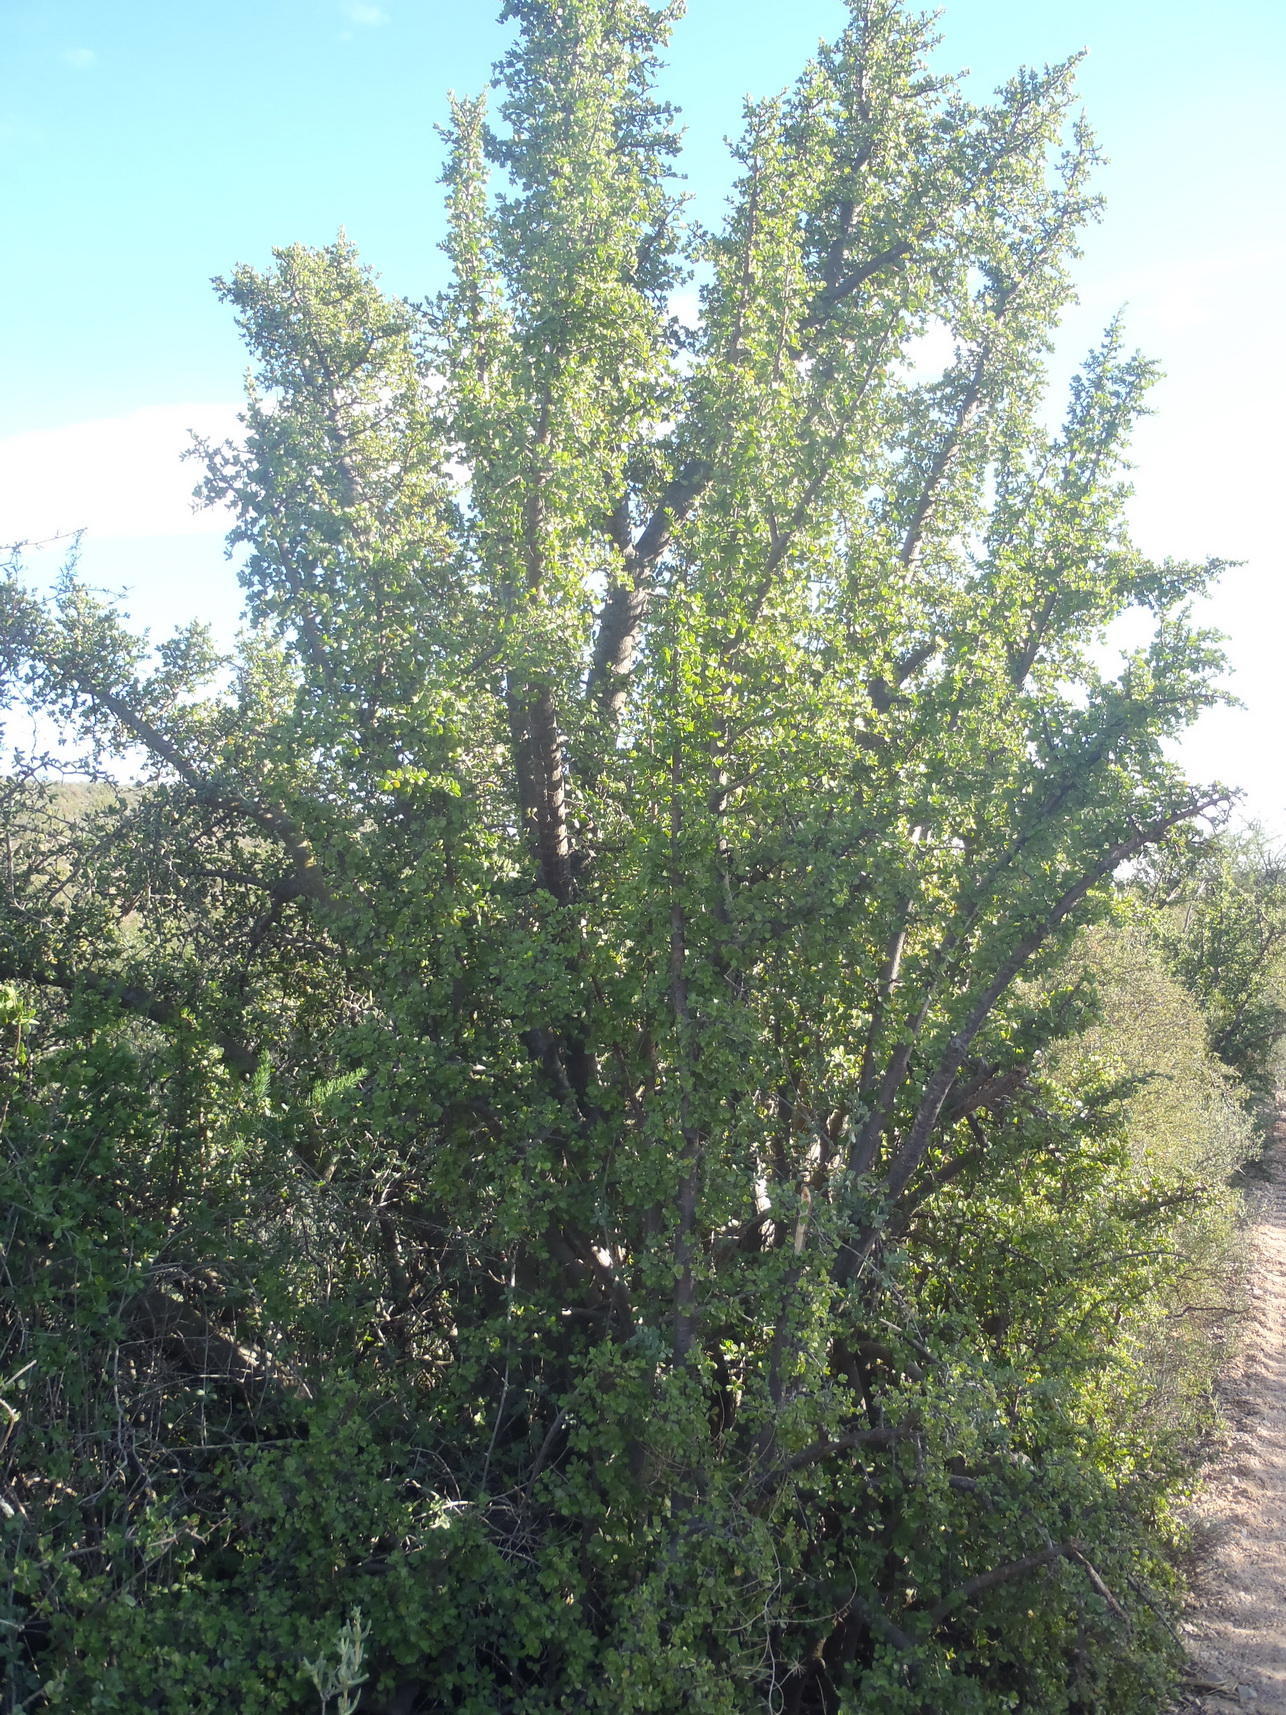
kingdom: Plantae
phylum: Tracheophyta
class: Magnoliopsida
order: Caryophyllales
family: Didiereaceae
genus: Portulacaria
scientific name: Portulacaria afra
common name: Elephant-bush
